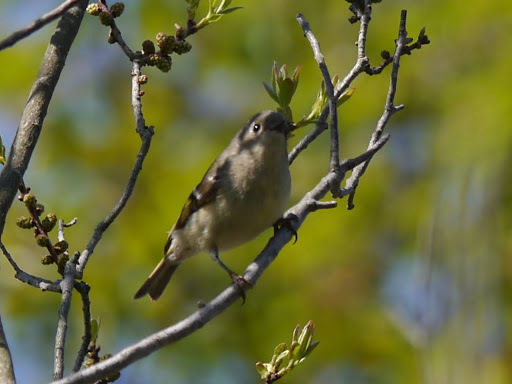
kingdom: Animalia
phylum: Chordata
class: Aves
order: Passeriformes
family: Regulidae
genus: Regulus
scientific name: Regulus calendula
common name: Ruby-crowned kinglet
